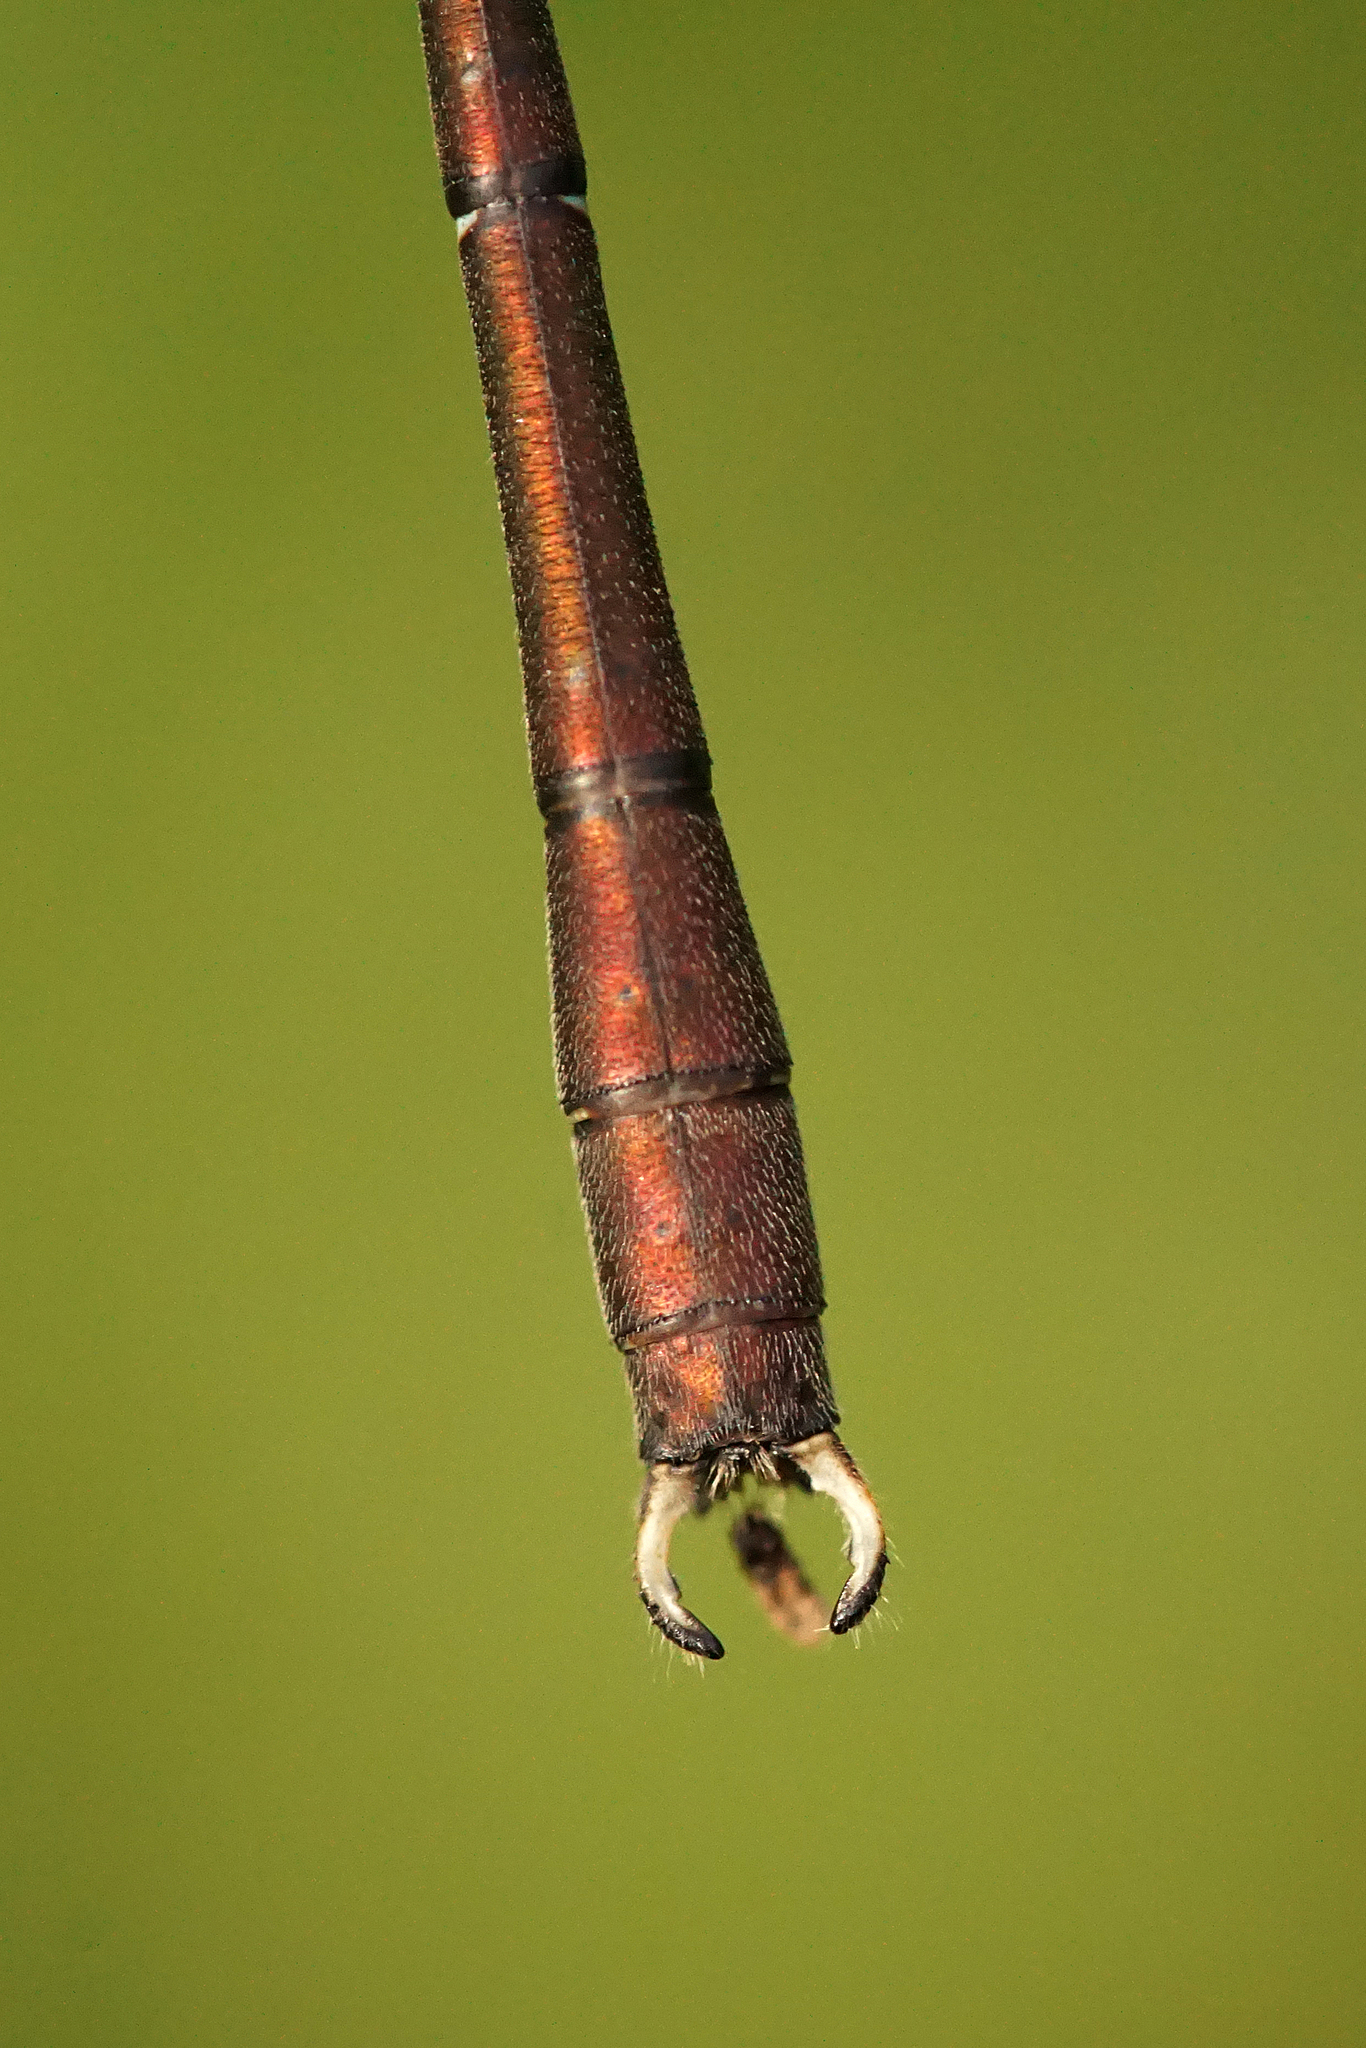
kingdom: Animalia
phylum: Arthropoda
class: Insecta
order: Odonata
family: Lestidae
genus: Chalcolestes
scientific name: Chalcolestes viridis
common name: Green emerald damselfly
